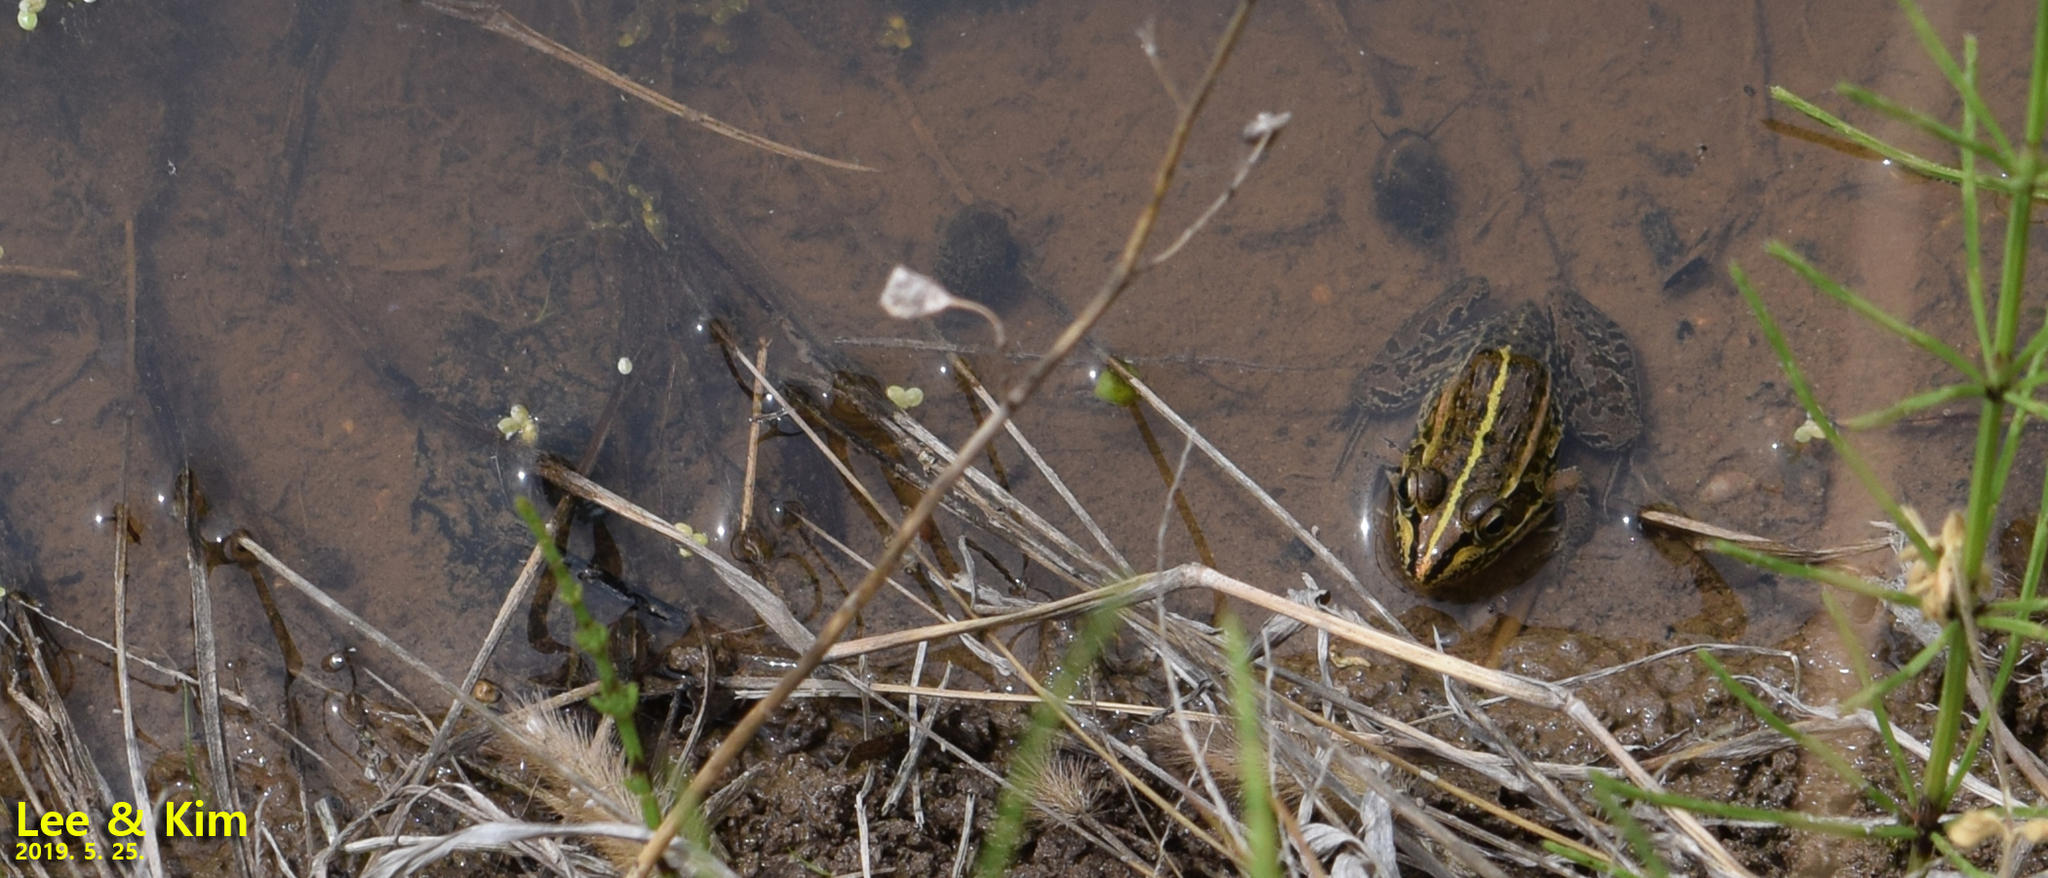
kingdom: Animalia
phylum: Chordata
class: Amphibia
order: Anura
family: Ranidae
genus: Pelophylax
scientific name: Pelophylax nigromaculatus
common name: Black-spotted pond frog
